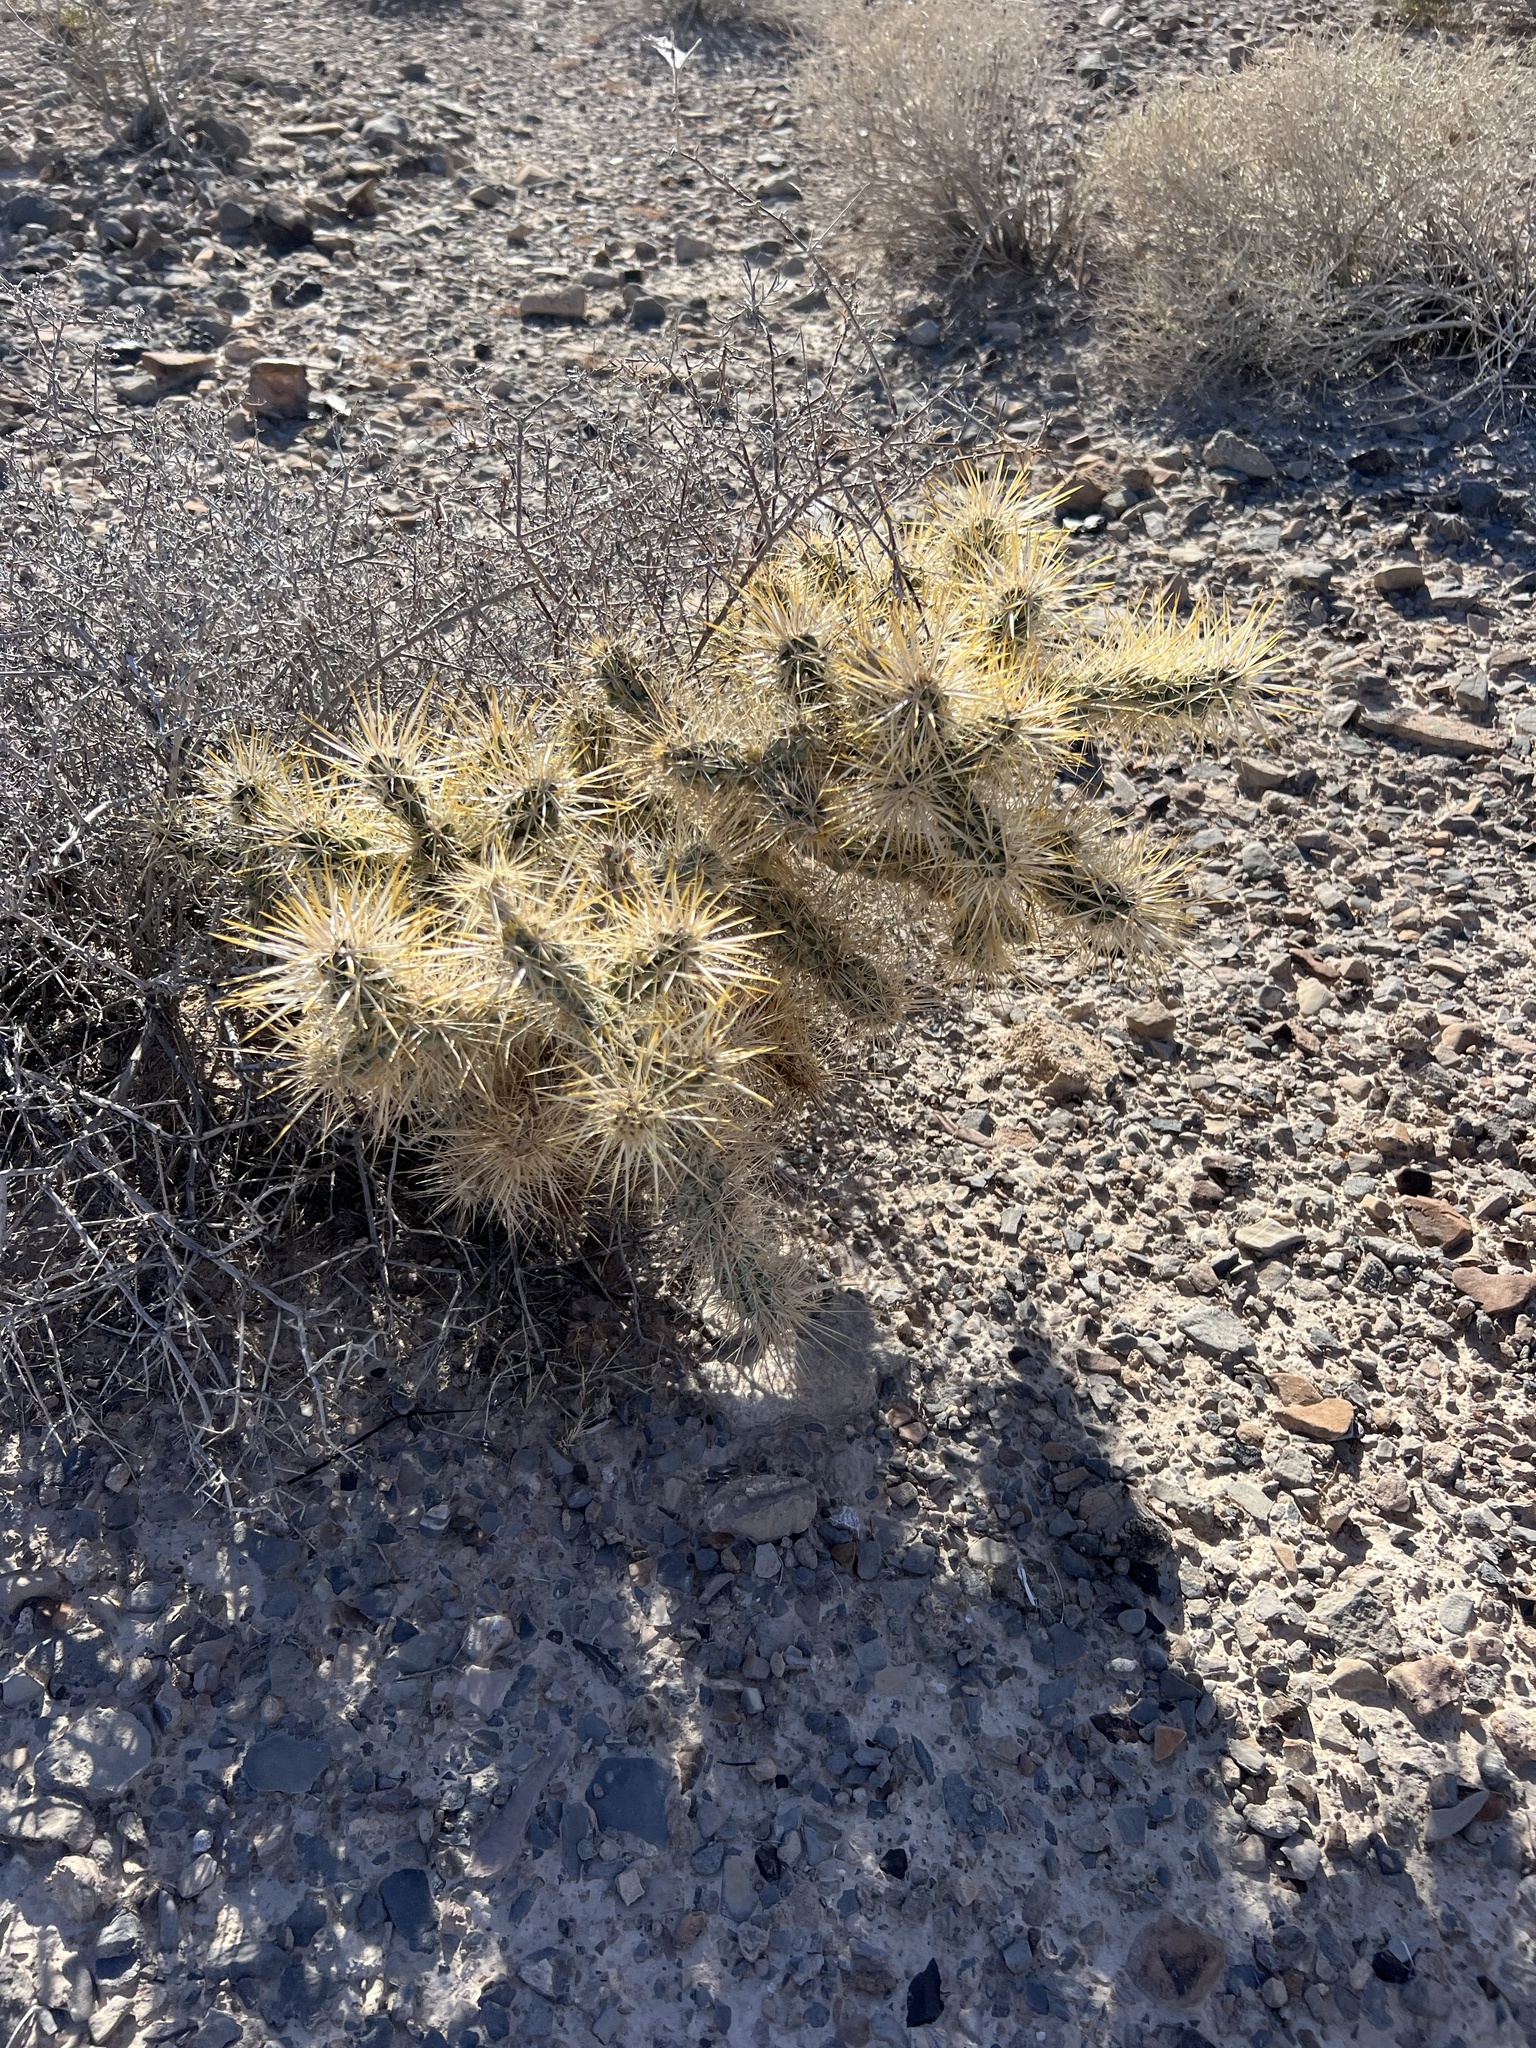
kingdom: Plantae
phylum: Tracheophyta
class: Magnoliopsida
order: Caryophyllales
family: Cactaceae
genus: Cylindropuntia
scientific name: Cylindropuntia echinocarpa
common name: Ground cholla
